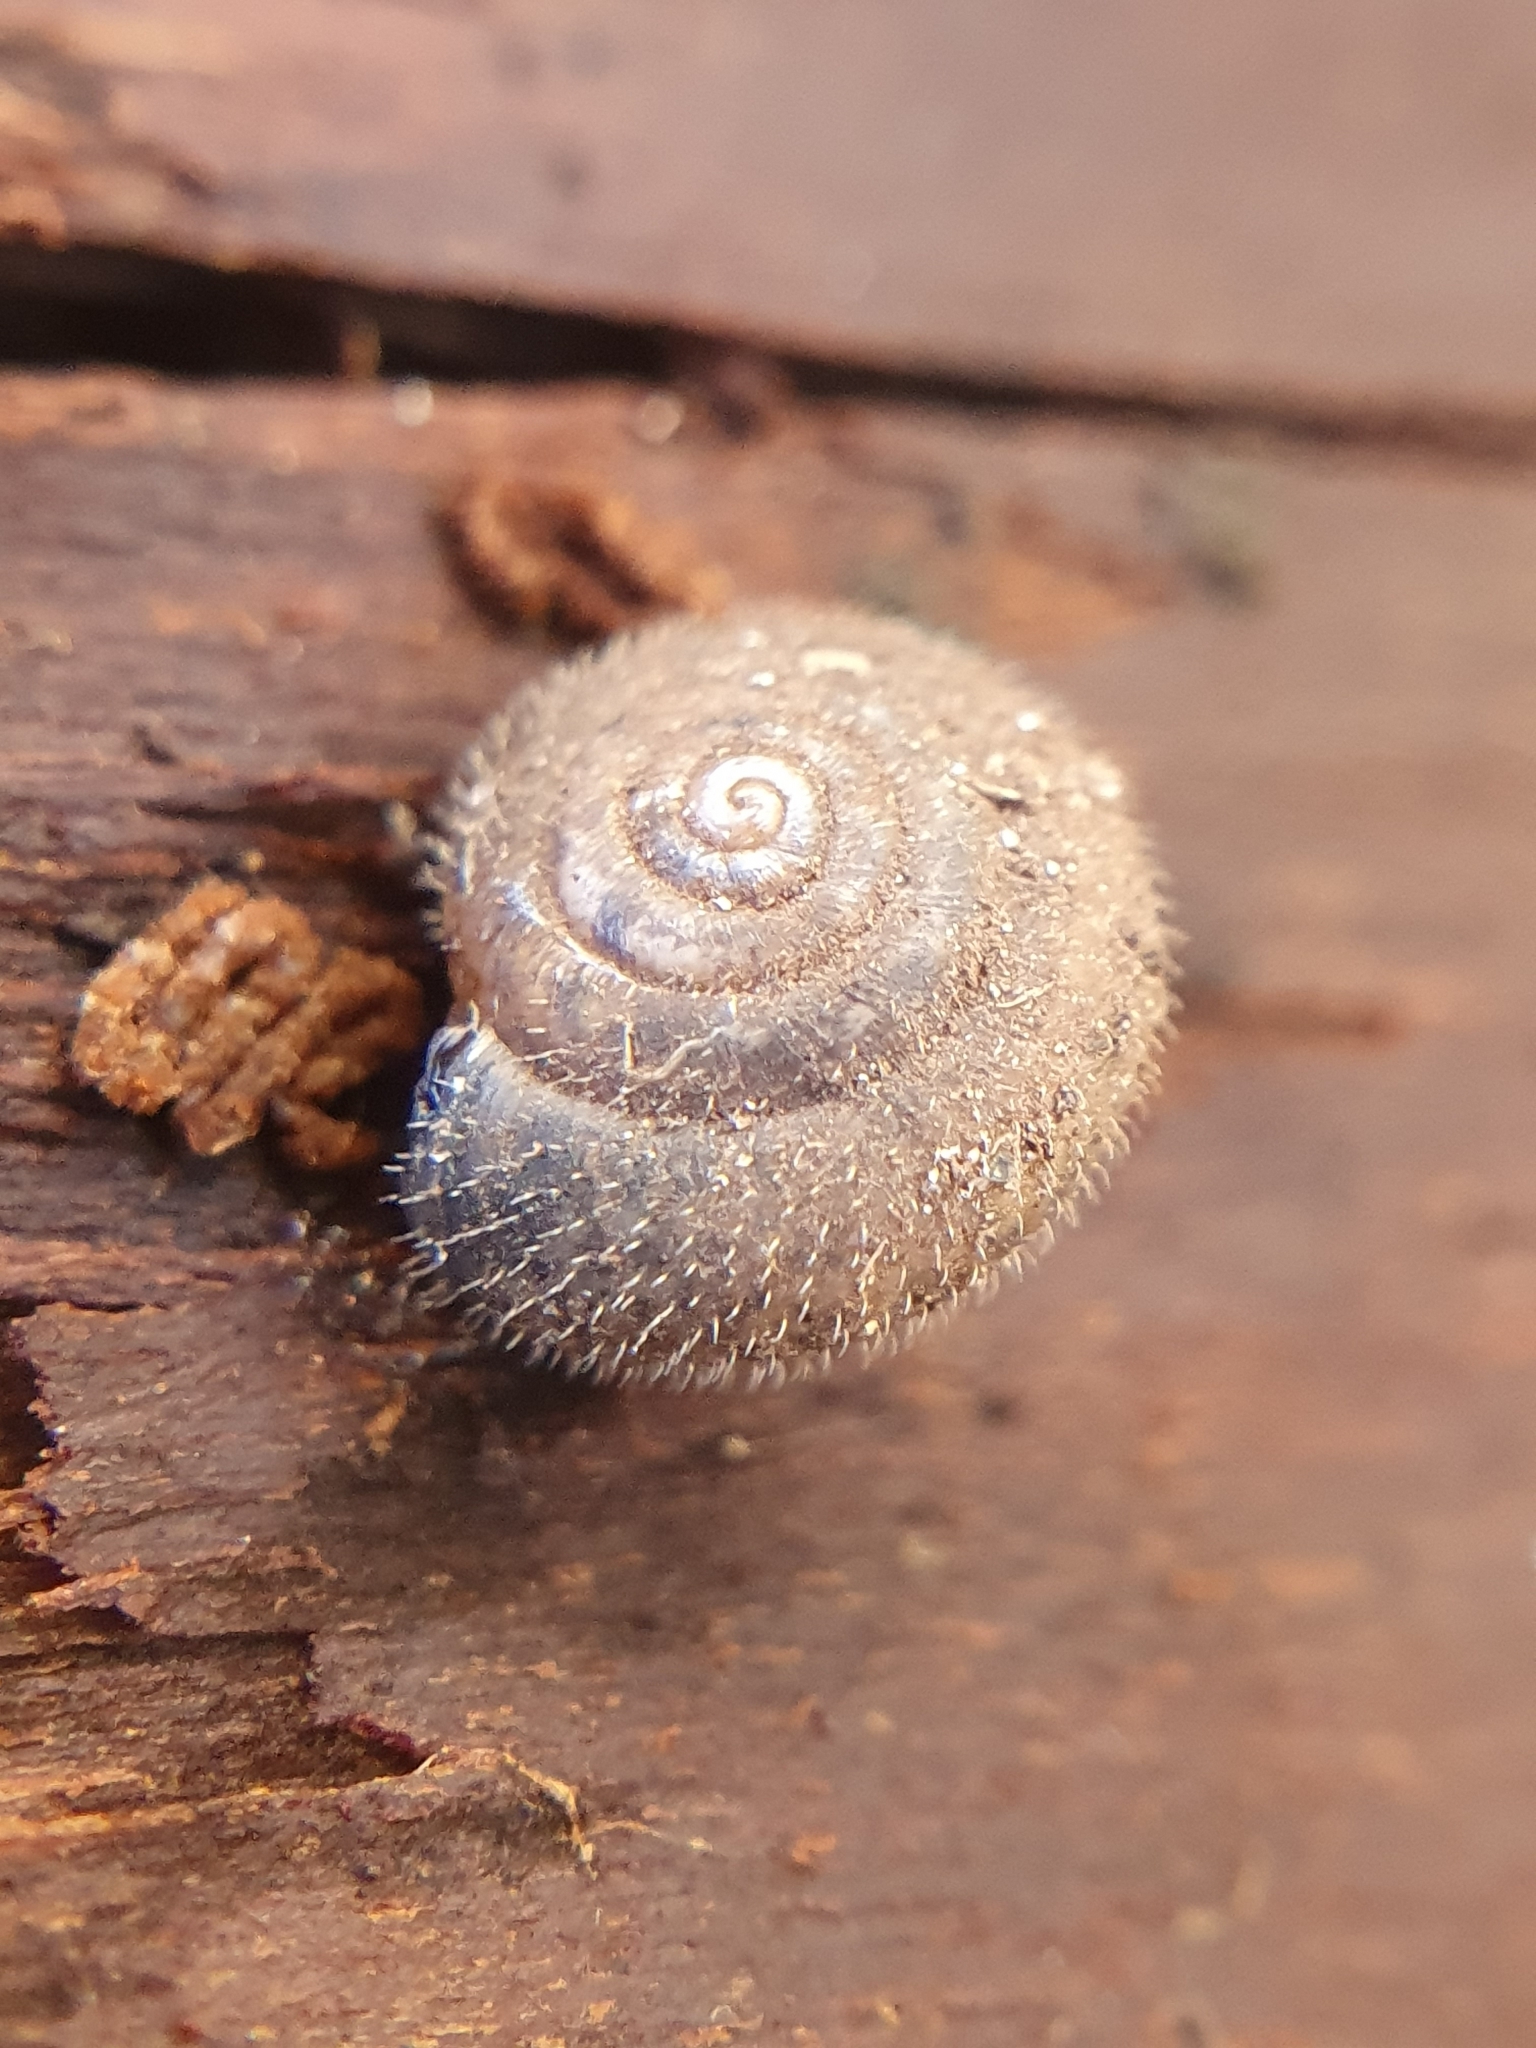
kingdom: Animalia
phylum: Mollusca
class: Gastropoda
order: Stylommatophora
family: Hygromiidae
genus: Trochulus
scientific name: Trochulus hispidus
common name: Hairy snail
